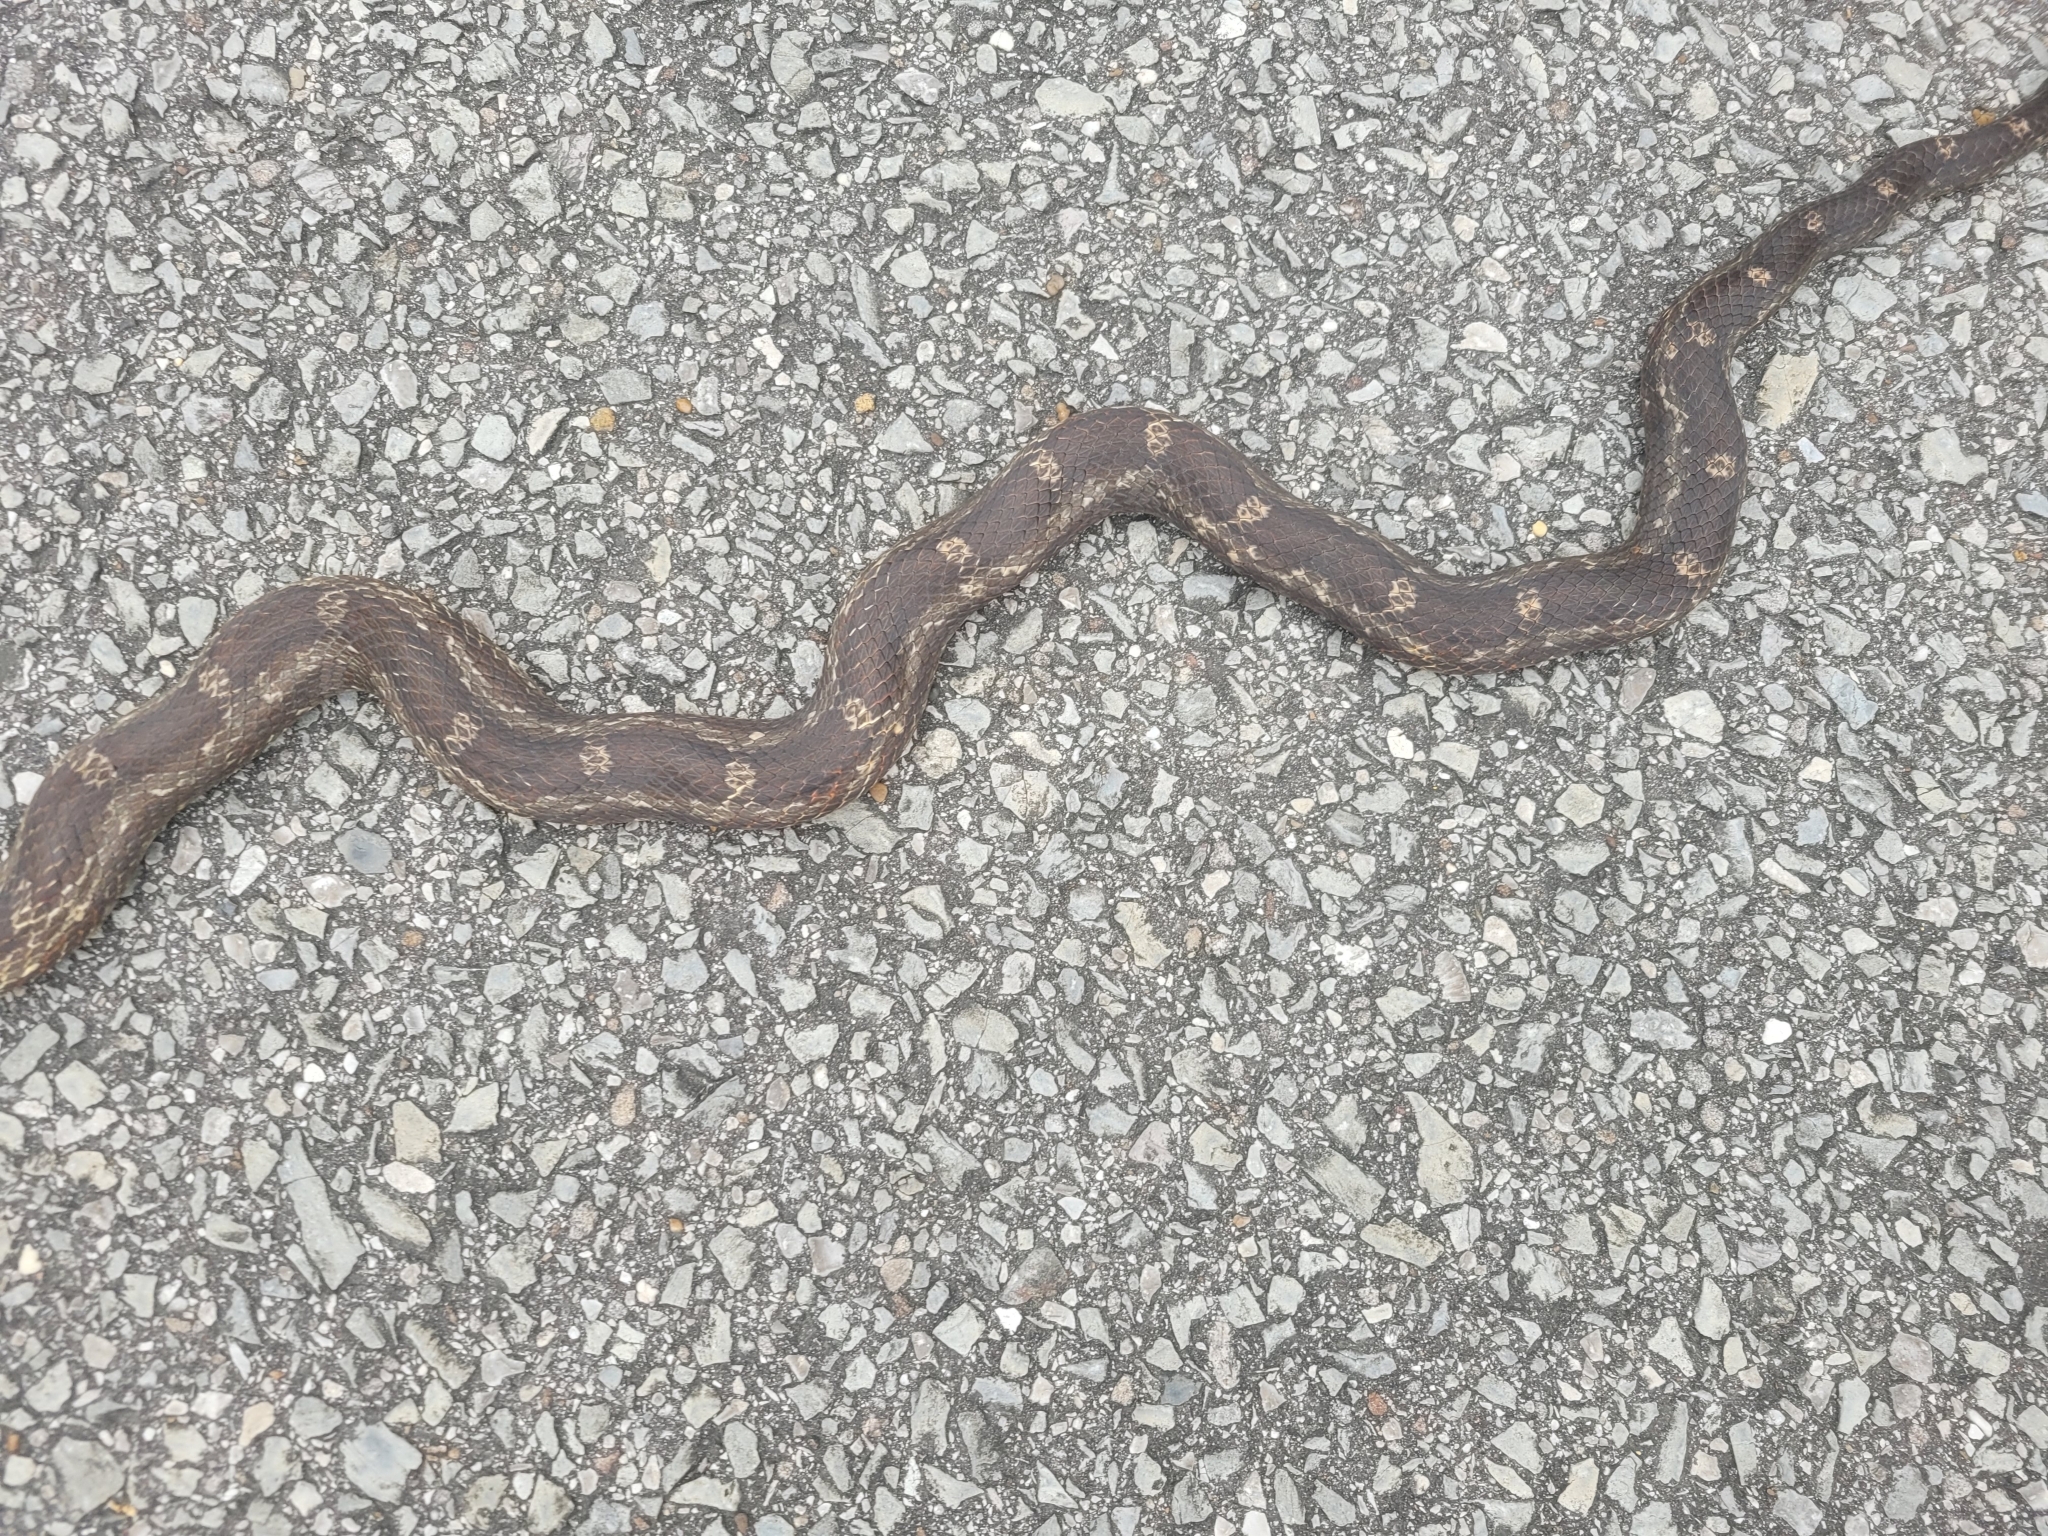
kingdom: Animalia
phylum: Chordata
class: Squamata
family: Colubridae
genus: Pantherophis
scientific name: Pantherophis spiloides
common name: Gray rat snake
